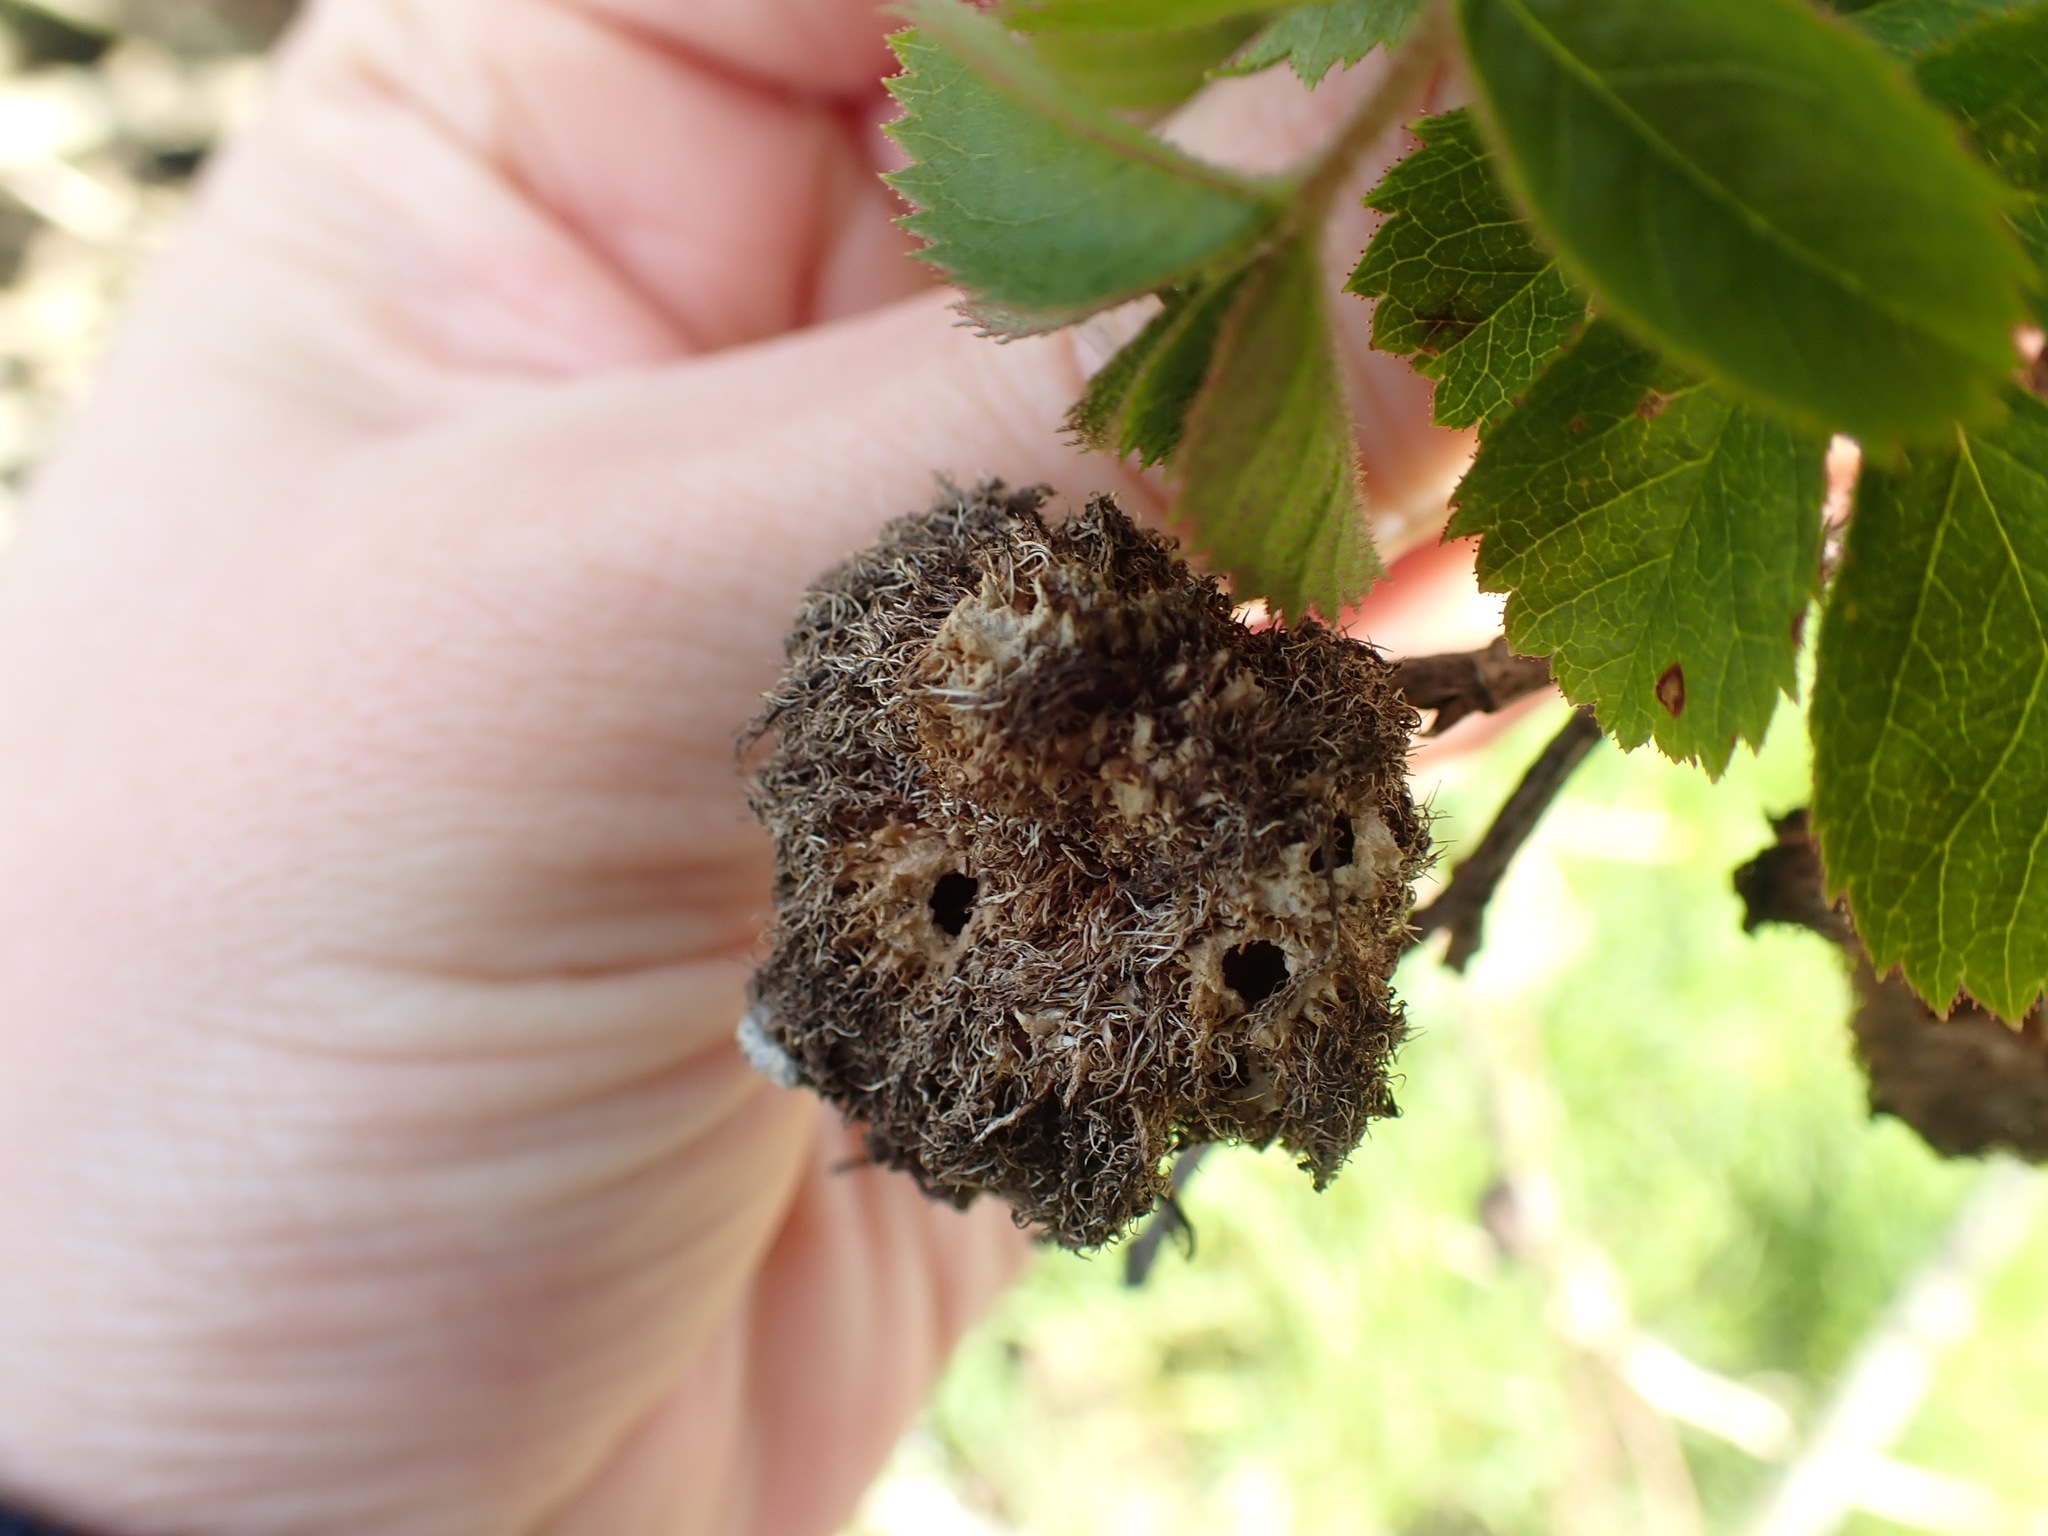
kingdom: Animalia
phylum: Arthropoda
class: Insecta
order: Hymenoptera
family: Cynipidae
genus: Diplolepis
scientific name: Diplolepis rosae
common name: Bedeguar gall
